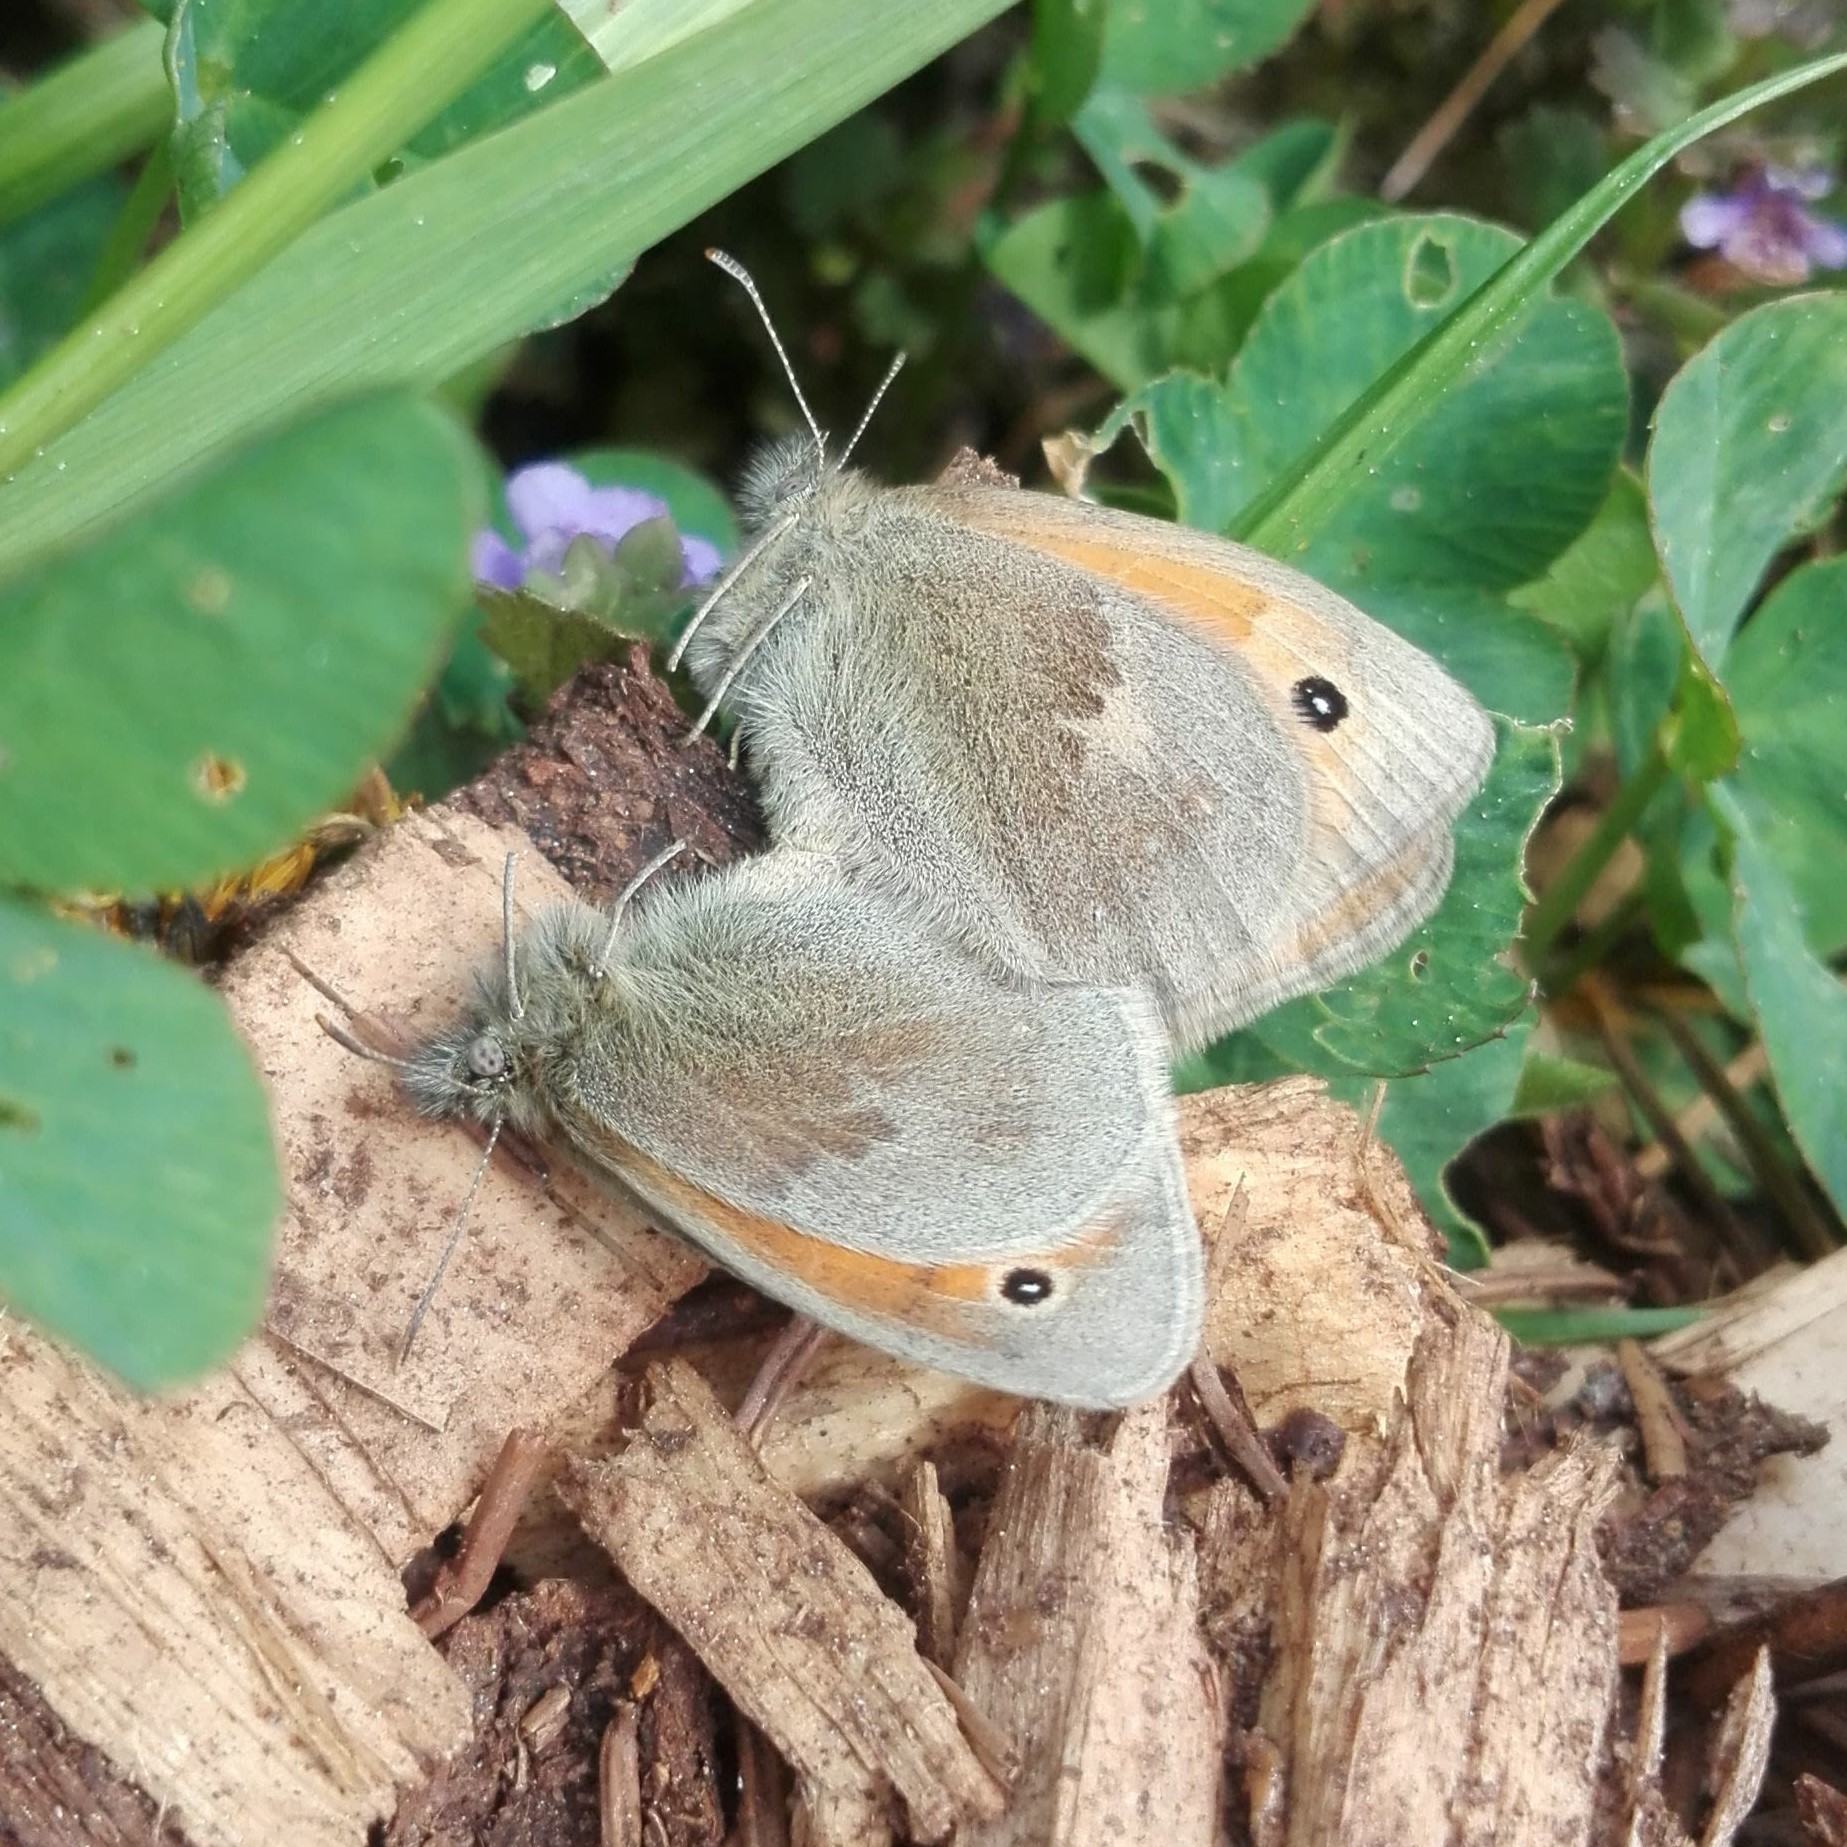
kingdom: Animalia
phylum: Arthropoda
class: Insecta
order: Lepidoptera
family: Nymphalidae
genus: Coenonympha
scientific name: Coenonympha pamphilus
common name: Small heath
